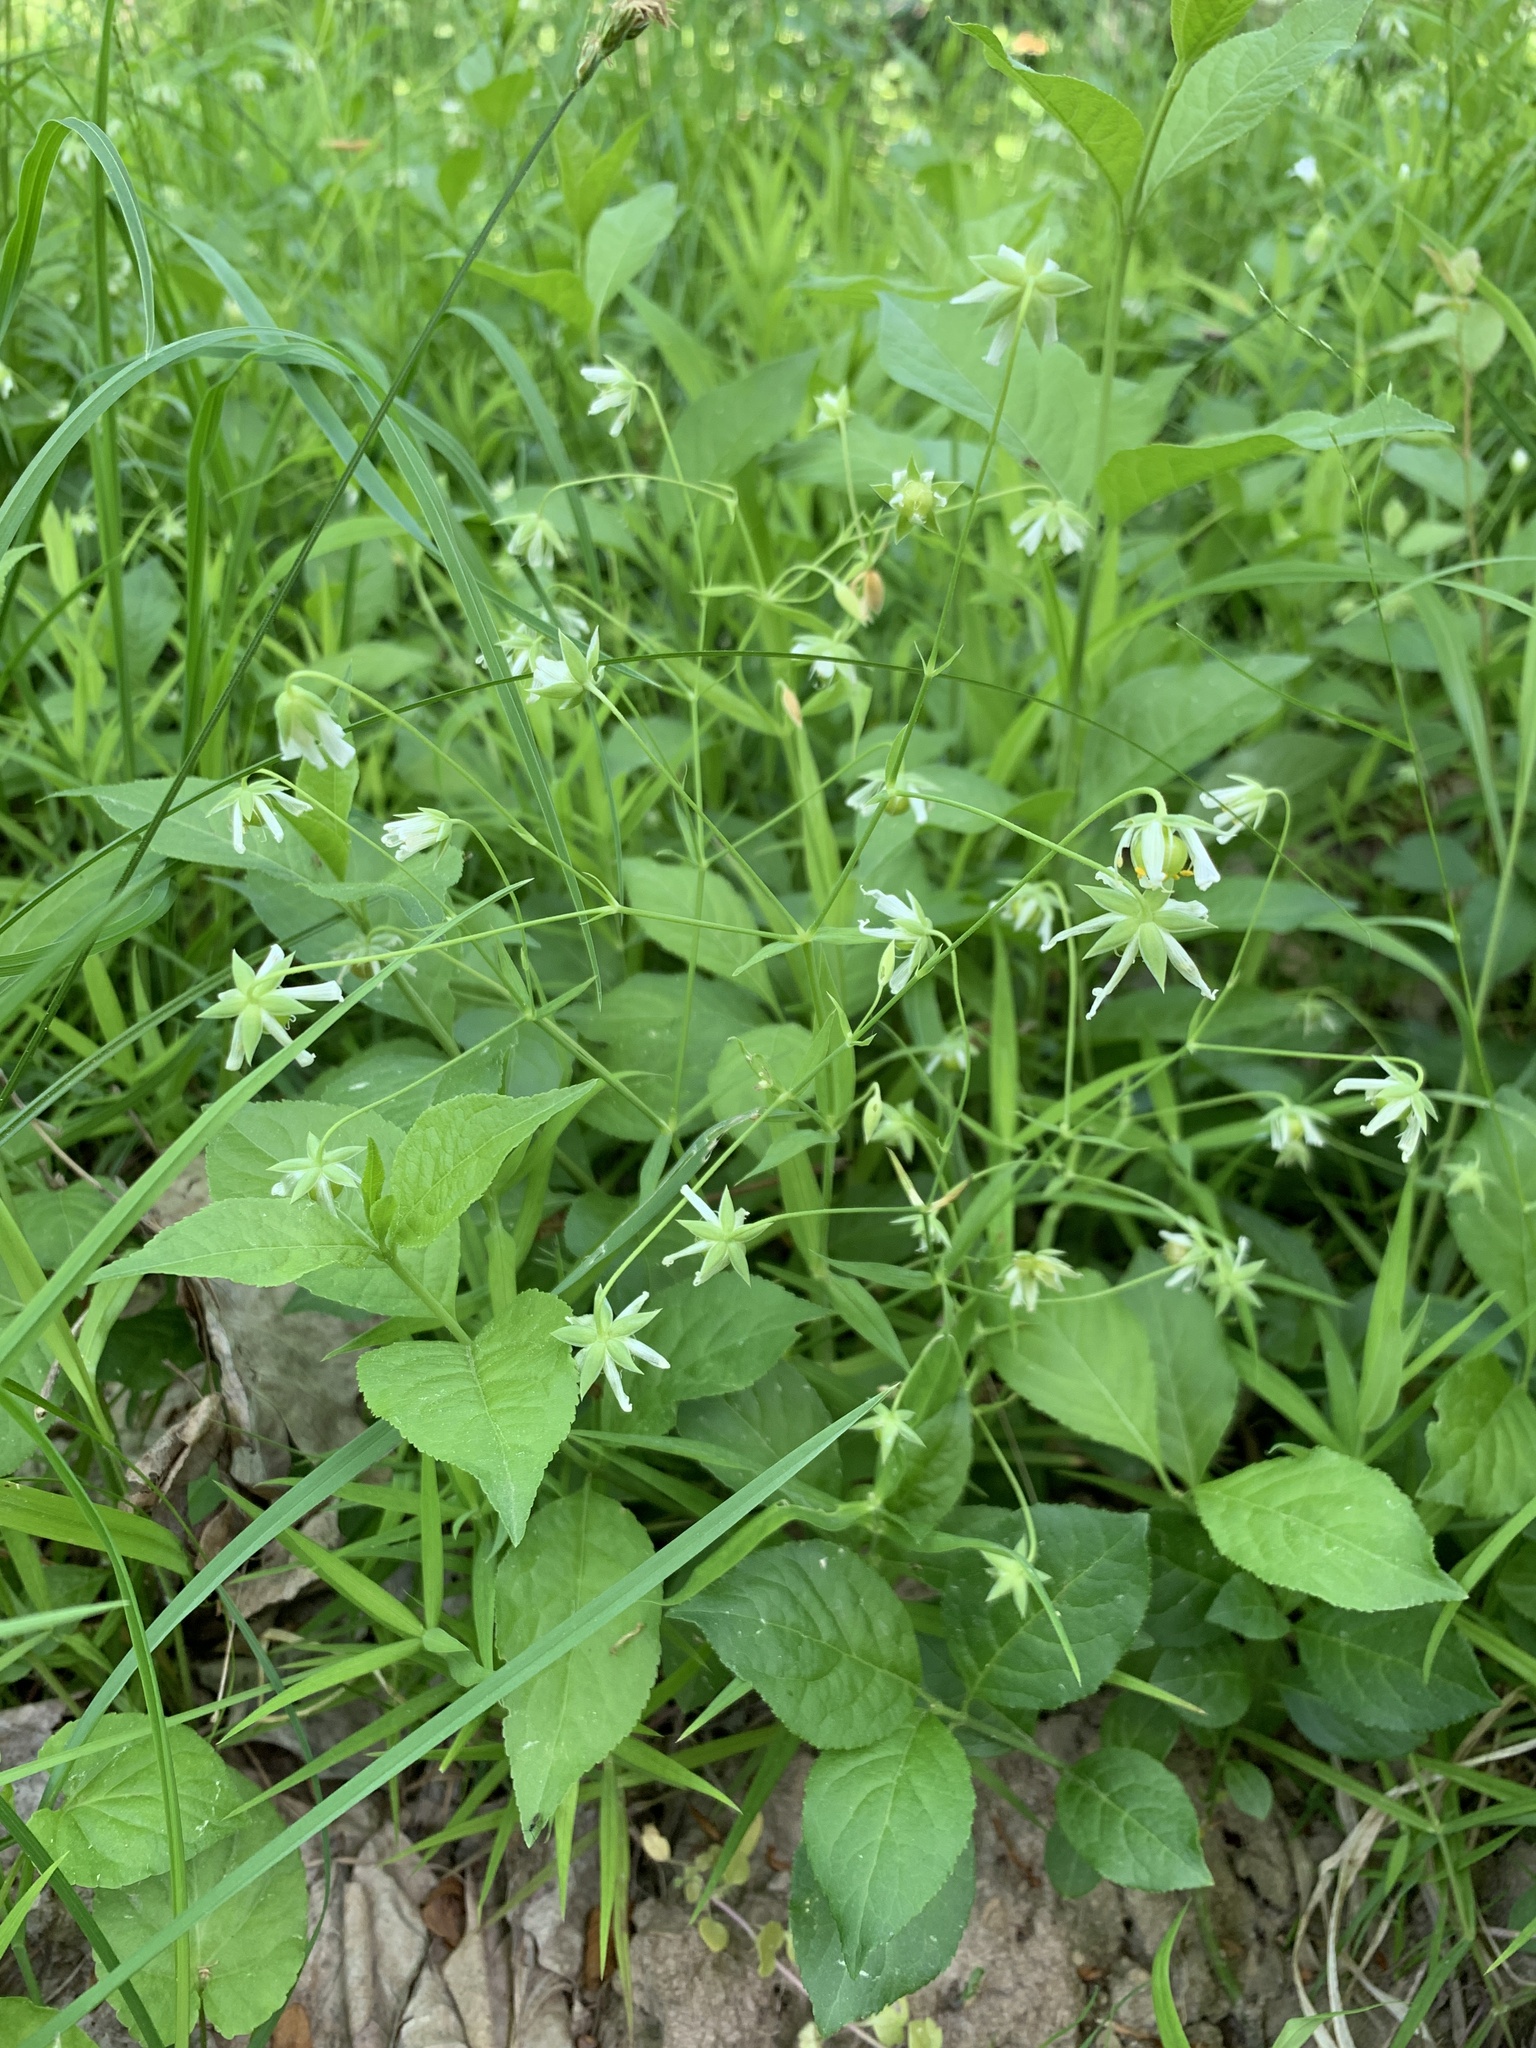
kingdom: Plantae
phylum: Tracheophyta
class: Magnoliopsida
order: Caryophyllales
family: Caryophyllaceae
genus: Rabelera
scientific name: Rabelera holostea
